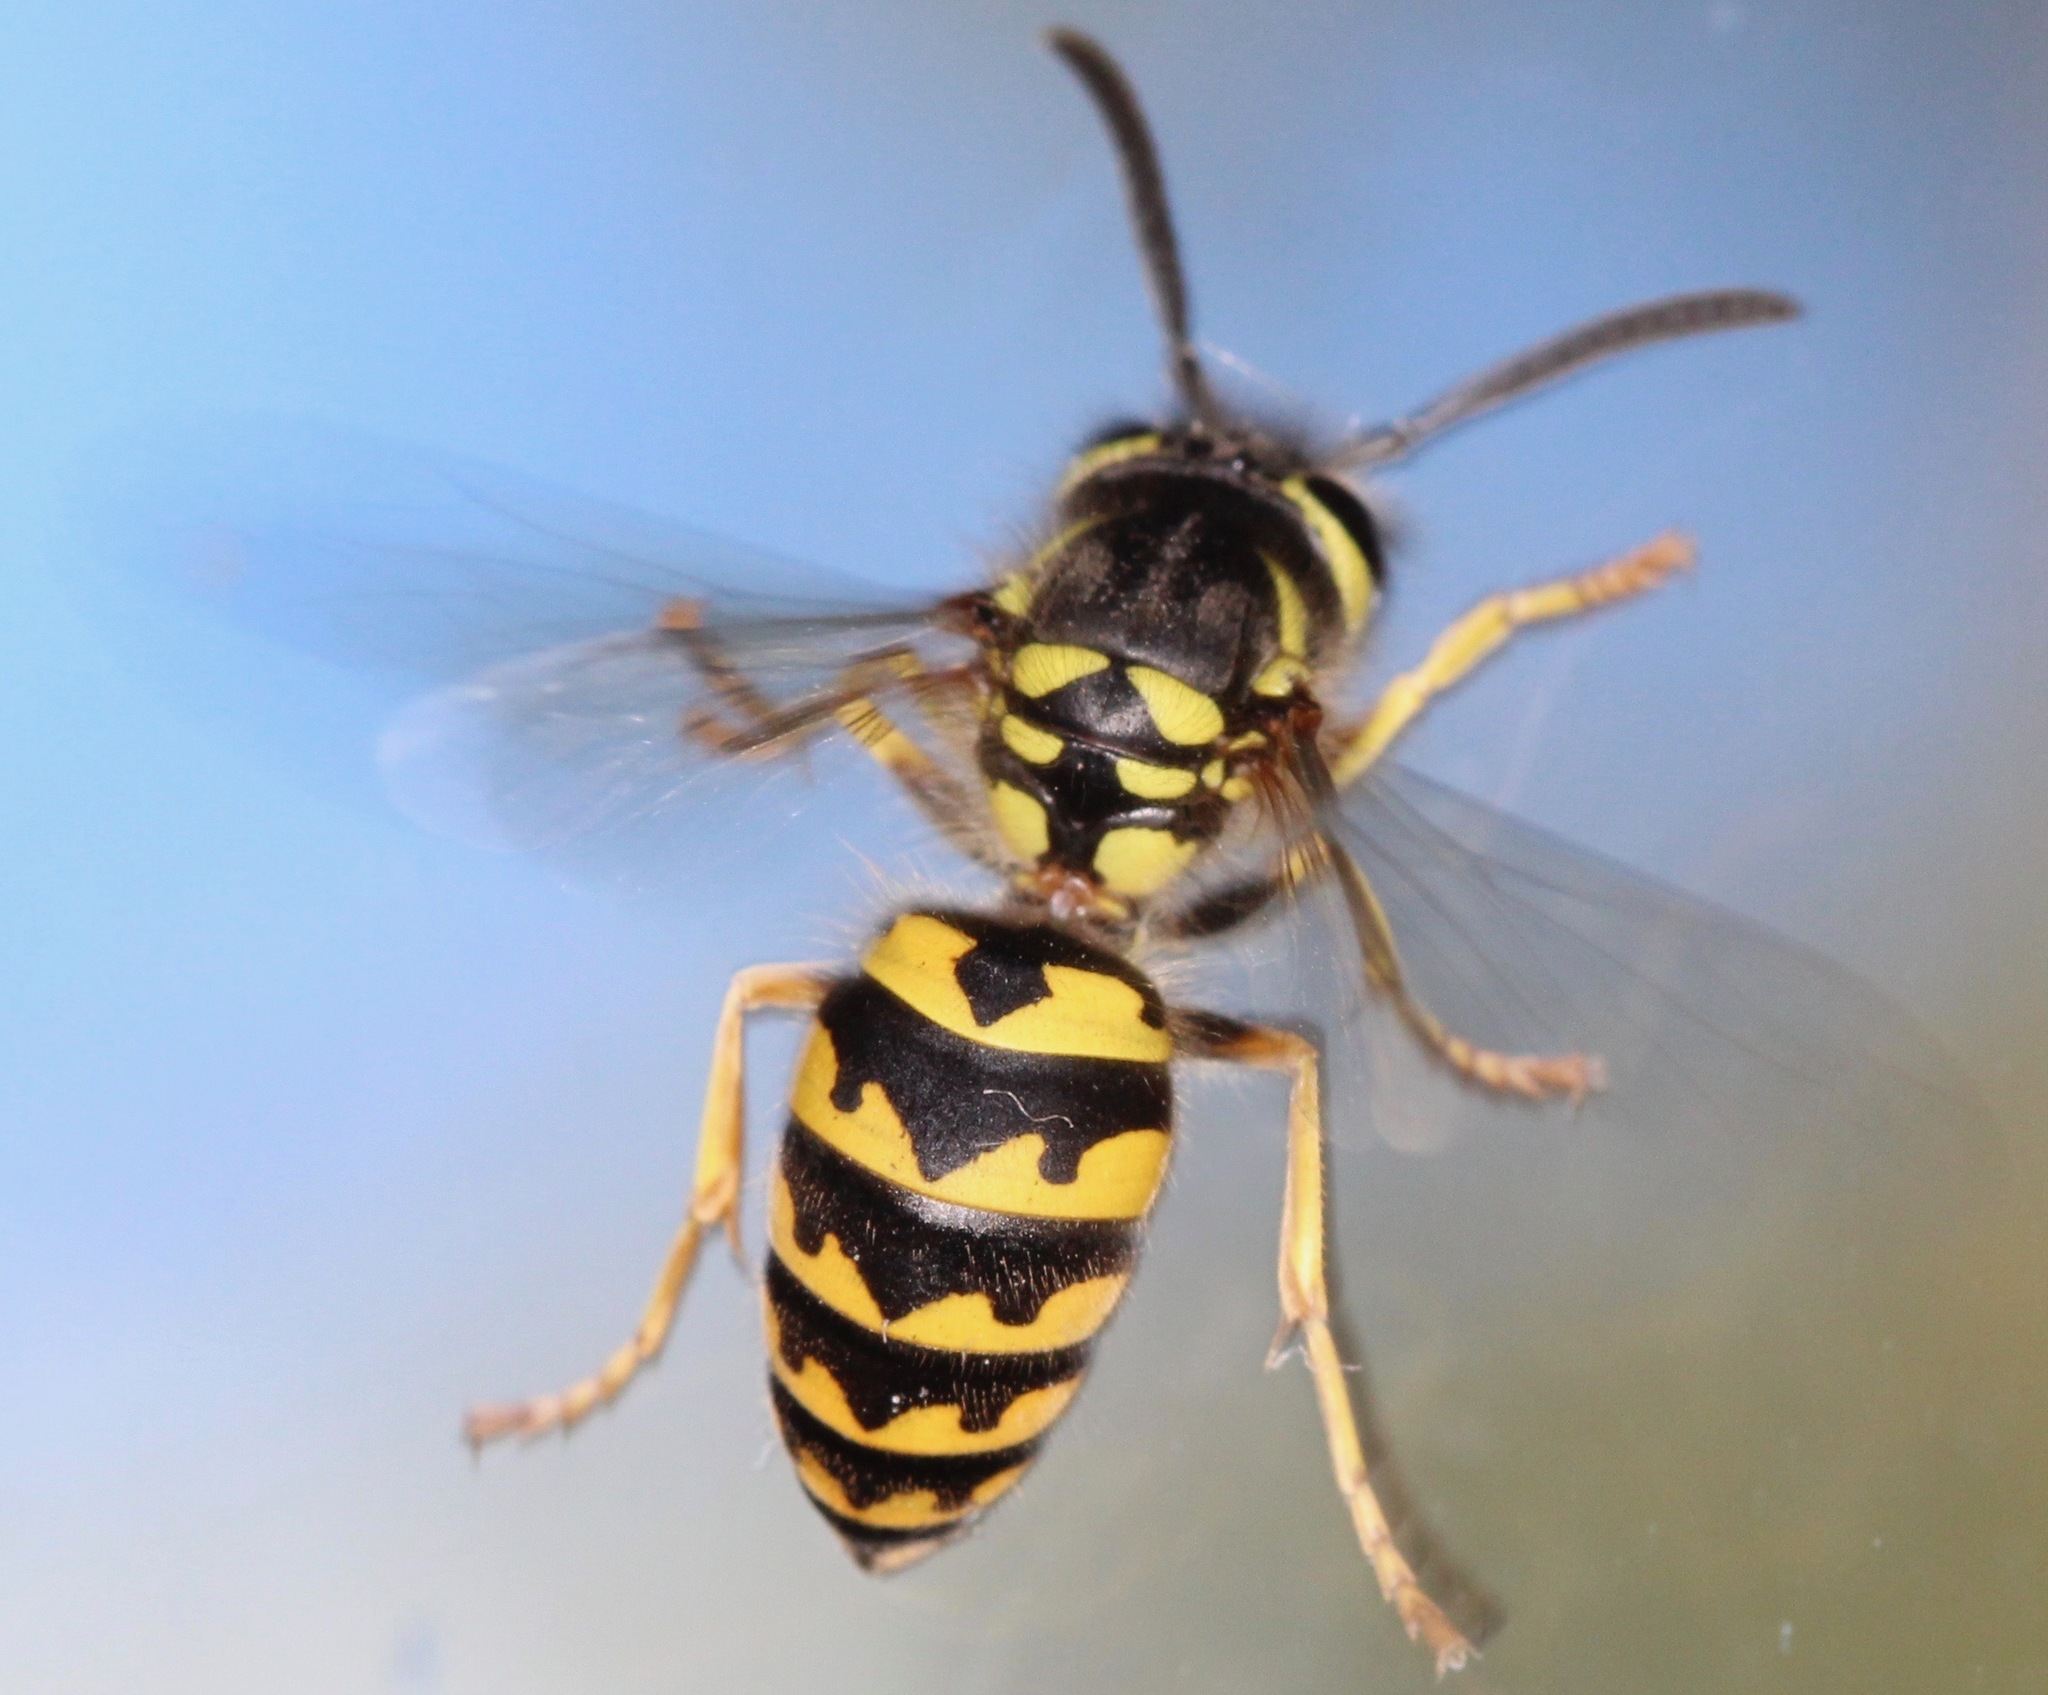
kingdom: Animalia
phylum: Arthropoda
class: Insecta
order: Hymenoptera
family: Vespidae
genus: Vespula
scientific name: Vespula pensylvanica
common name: Western yellowjacket
